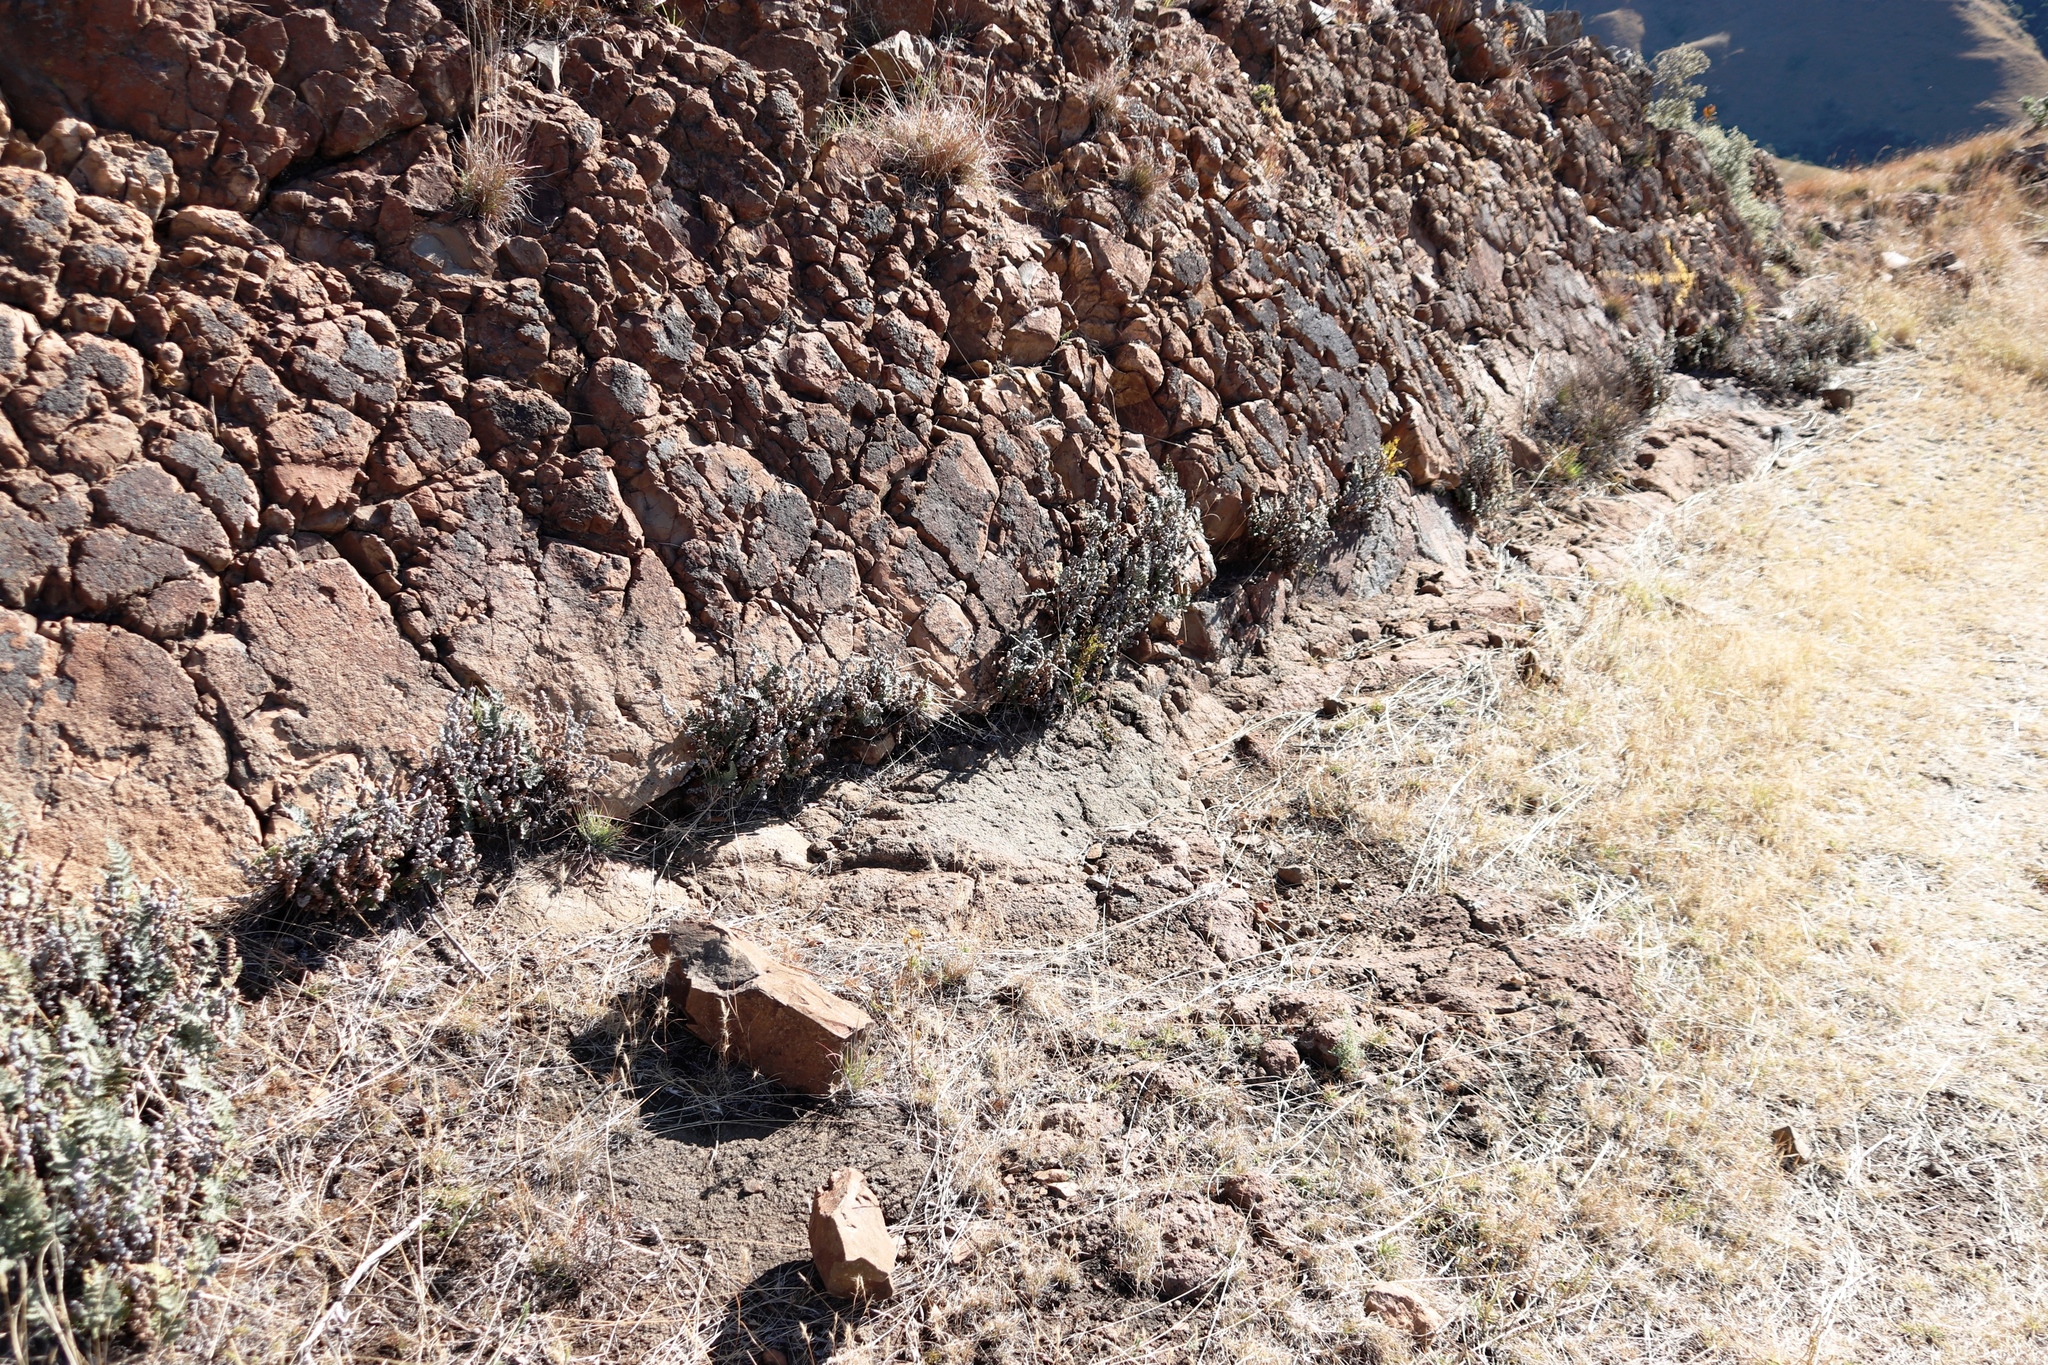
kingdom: Plantae
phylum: Tracheophyta
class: Polypodiopsida
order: Polypodiales
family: Pteridaceae
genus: Cheilanthes
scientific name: Cheilanthes eckloniana
